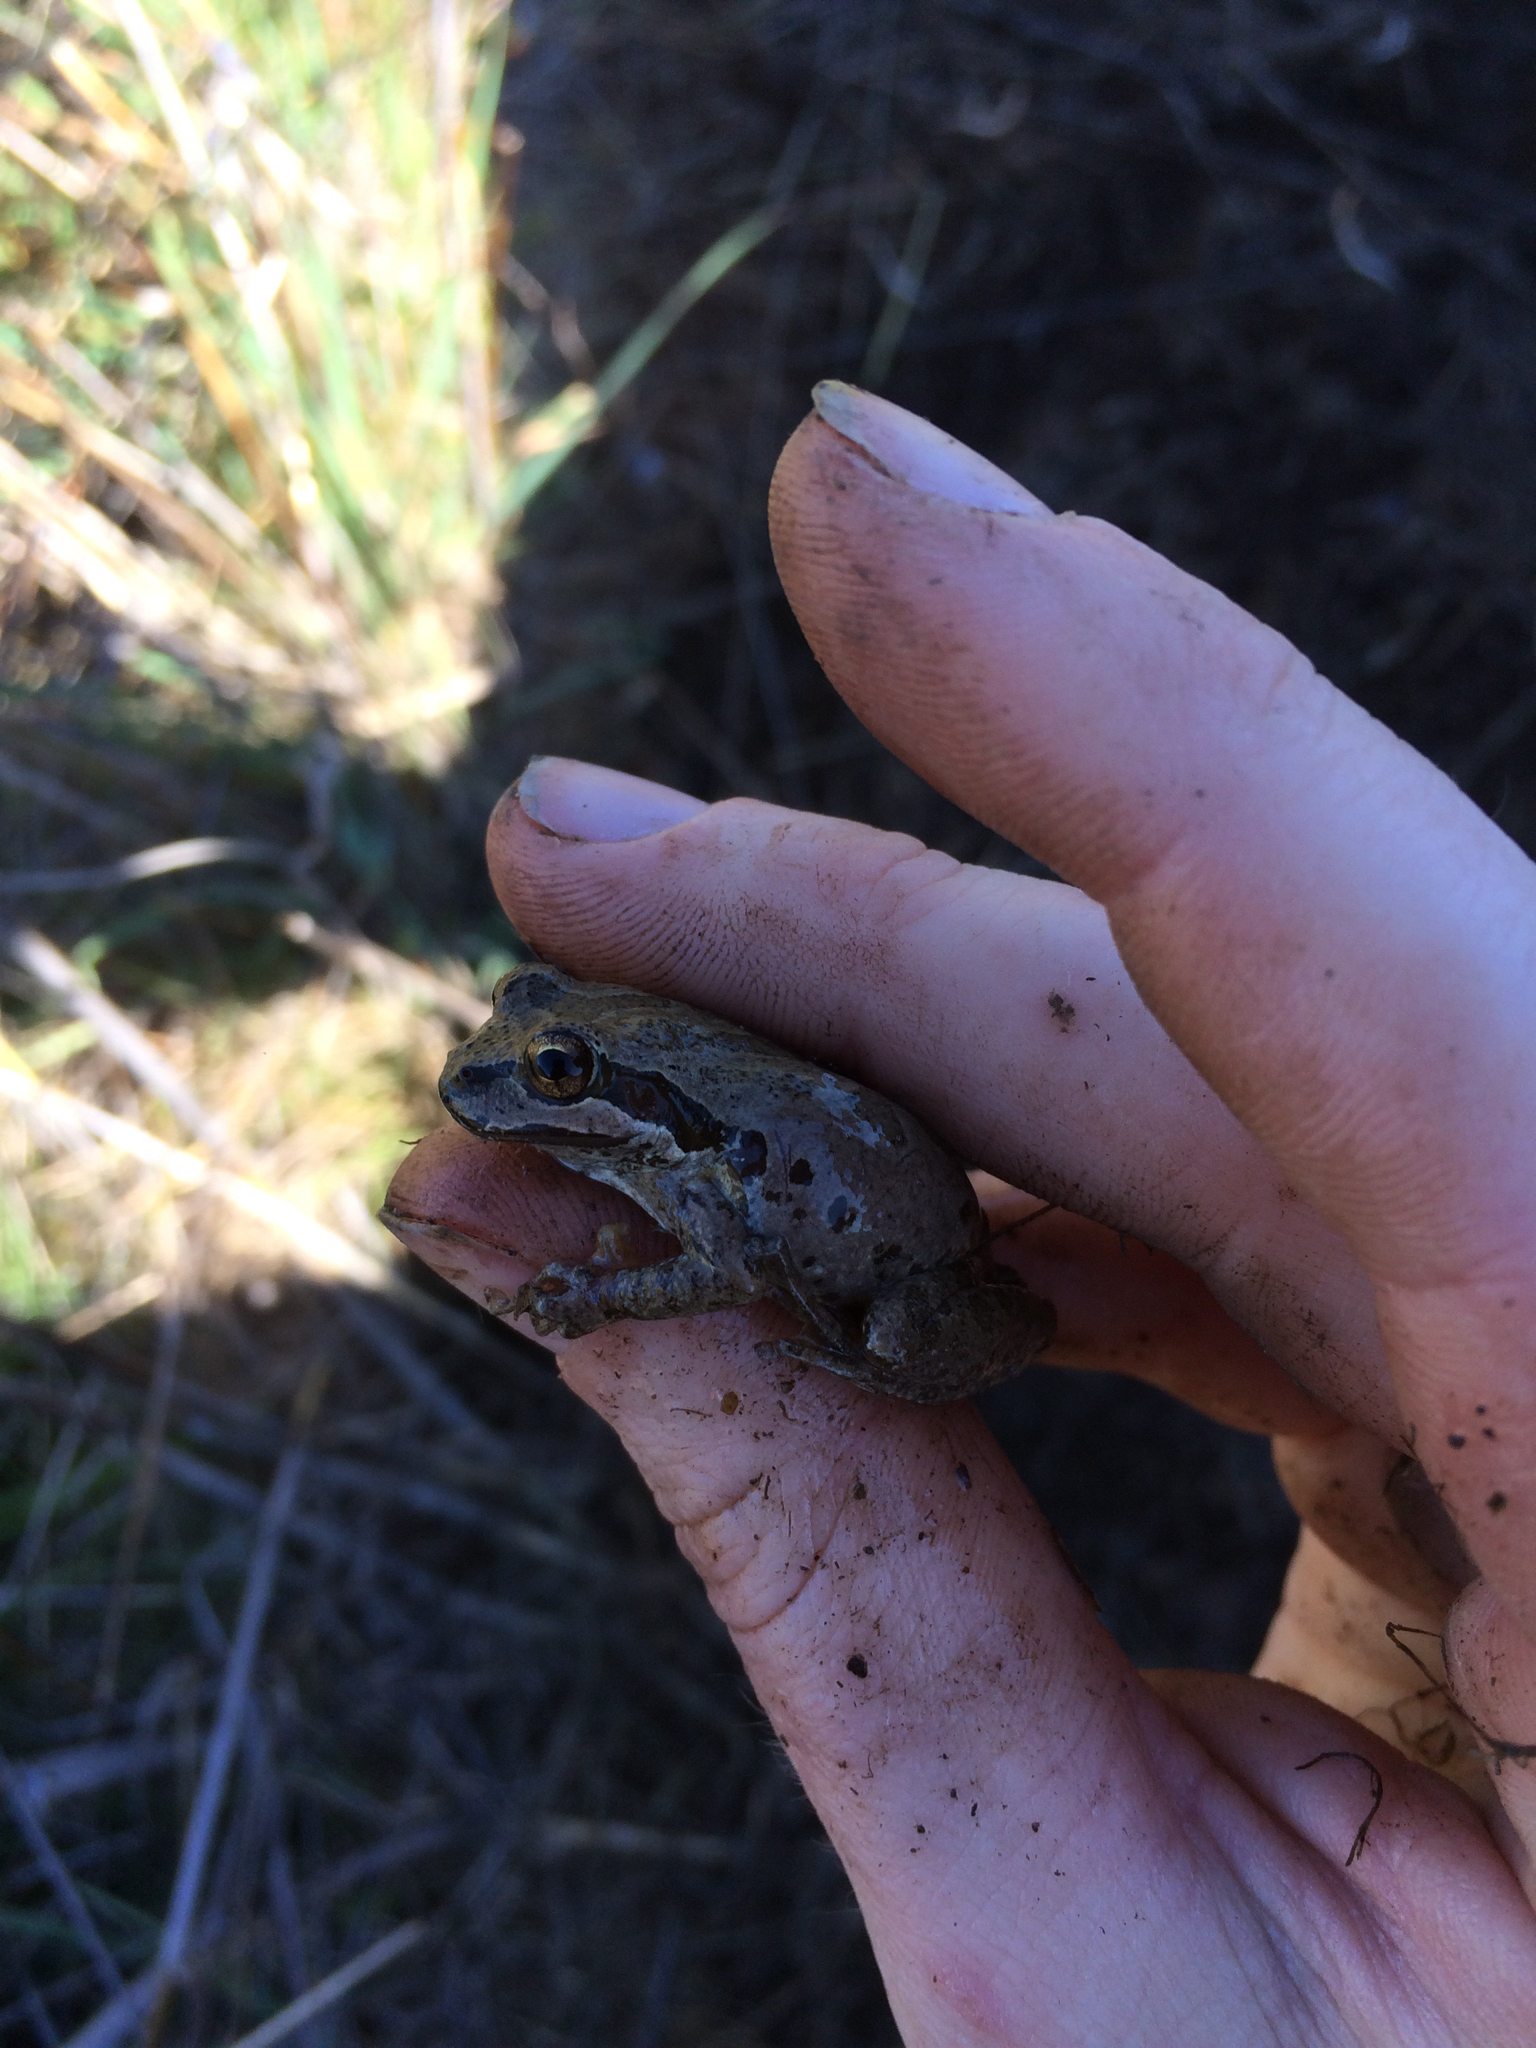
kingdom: Animalia
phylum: Chordata
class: Amphibia
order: Anura
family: Hylidae
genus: Pseudacris
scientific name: Pseudacris regilla
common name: Pacific chorus frog
